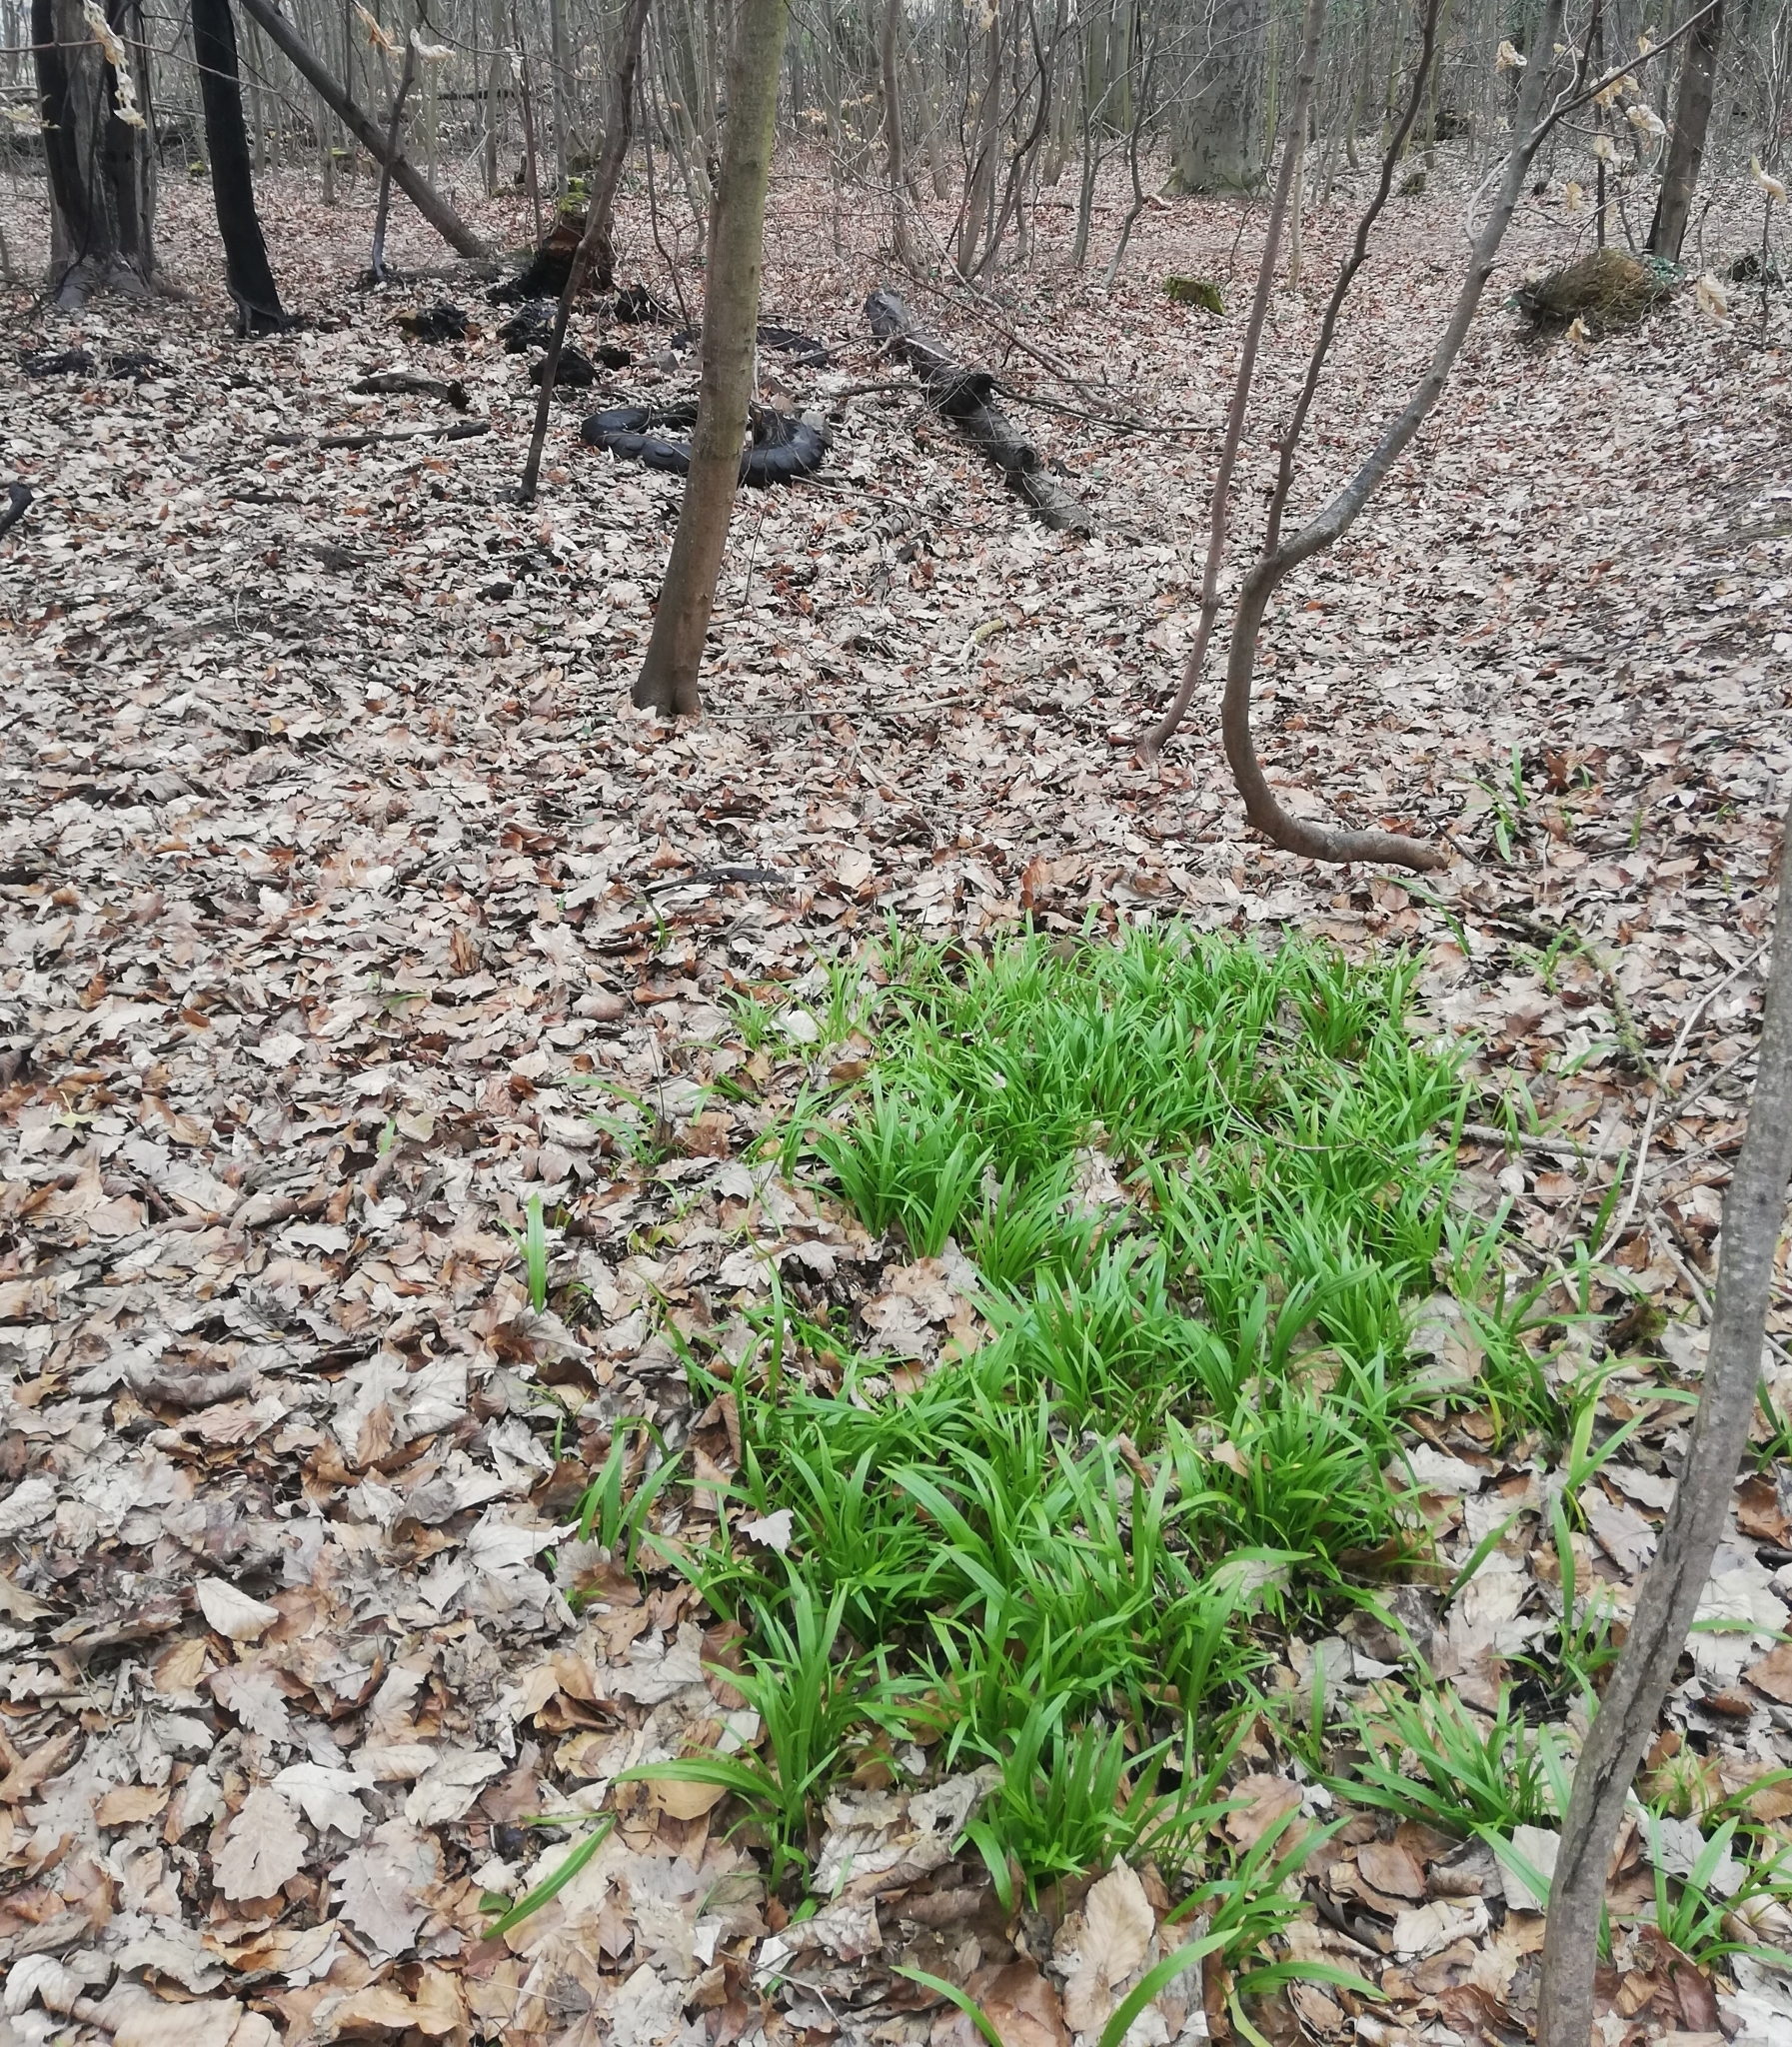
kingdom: Plantae
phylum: Tracheophyta
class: Liliopsida
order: Asparagales
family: Amaryllidaceae
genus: Allium
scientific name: Allium paradoxum
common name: Few-flowered garlic
